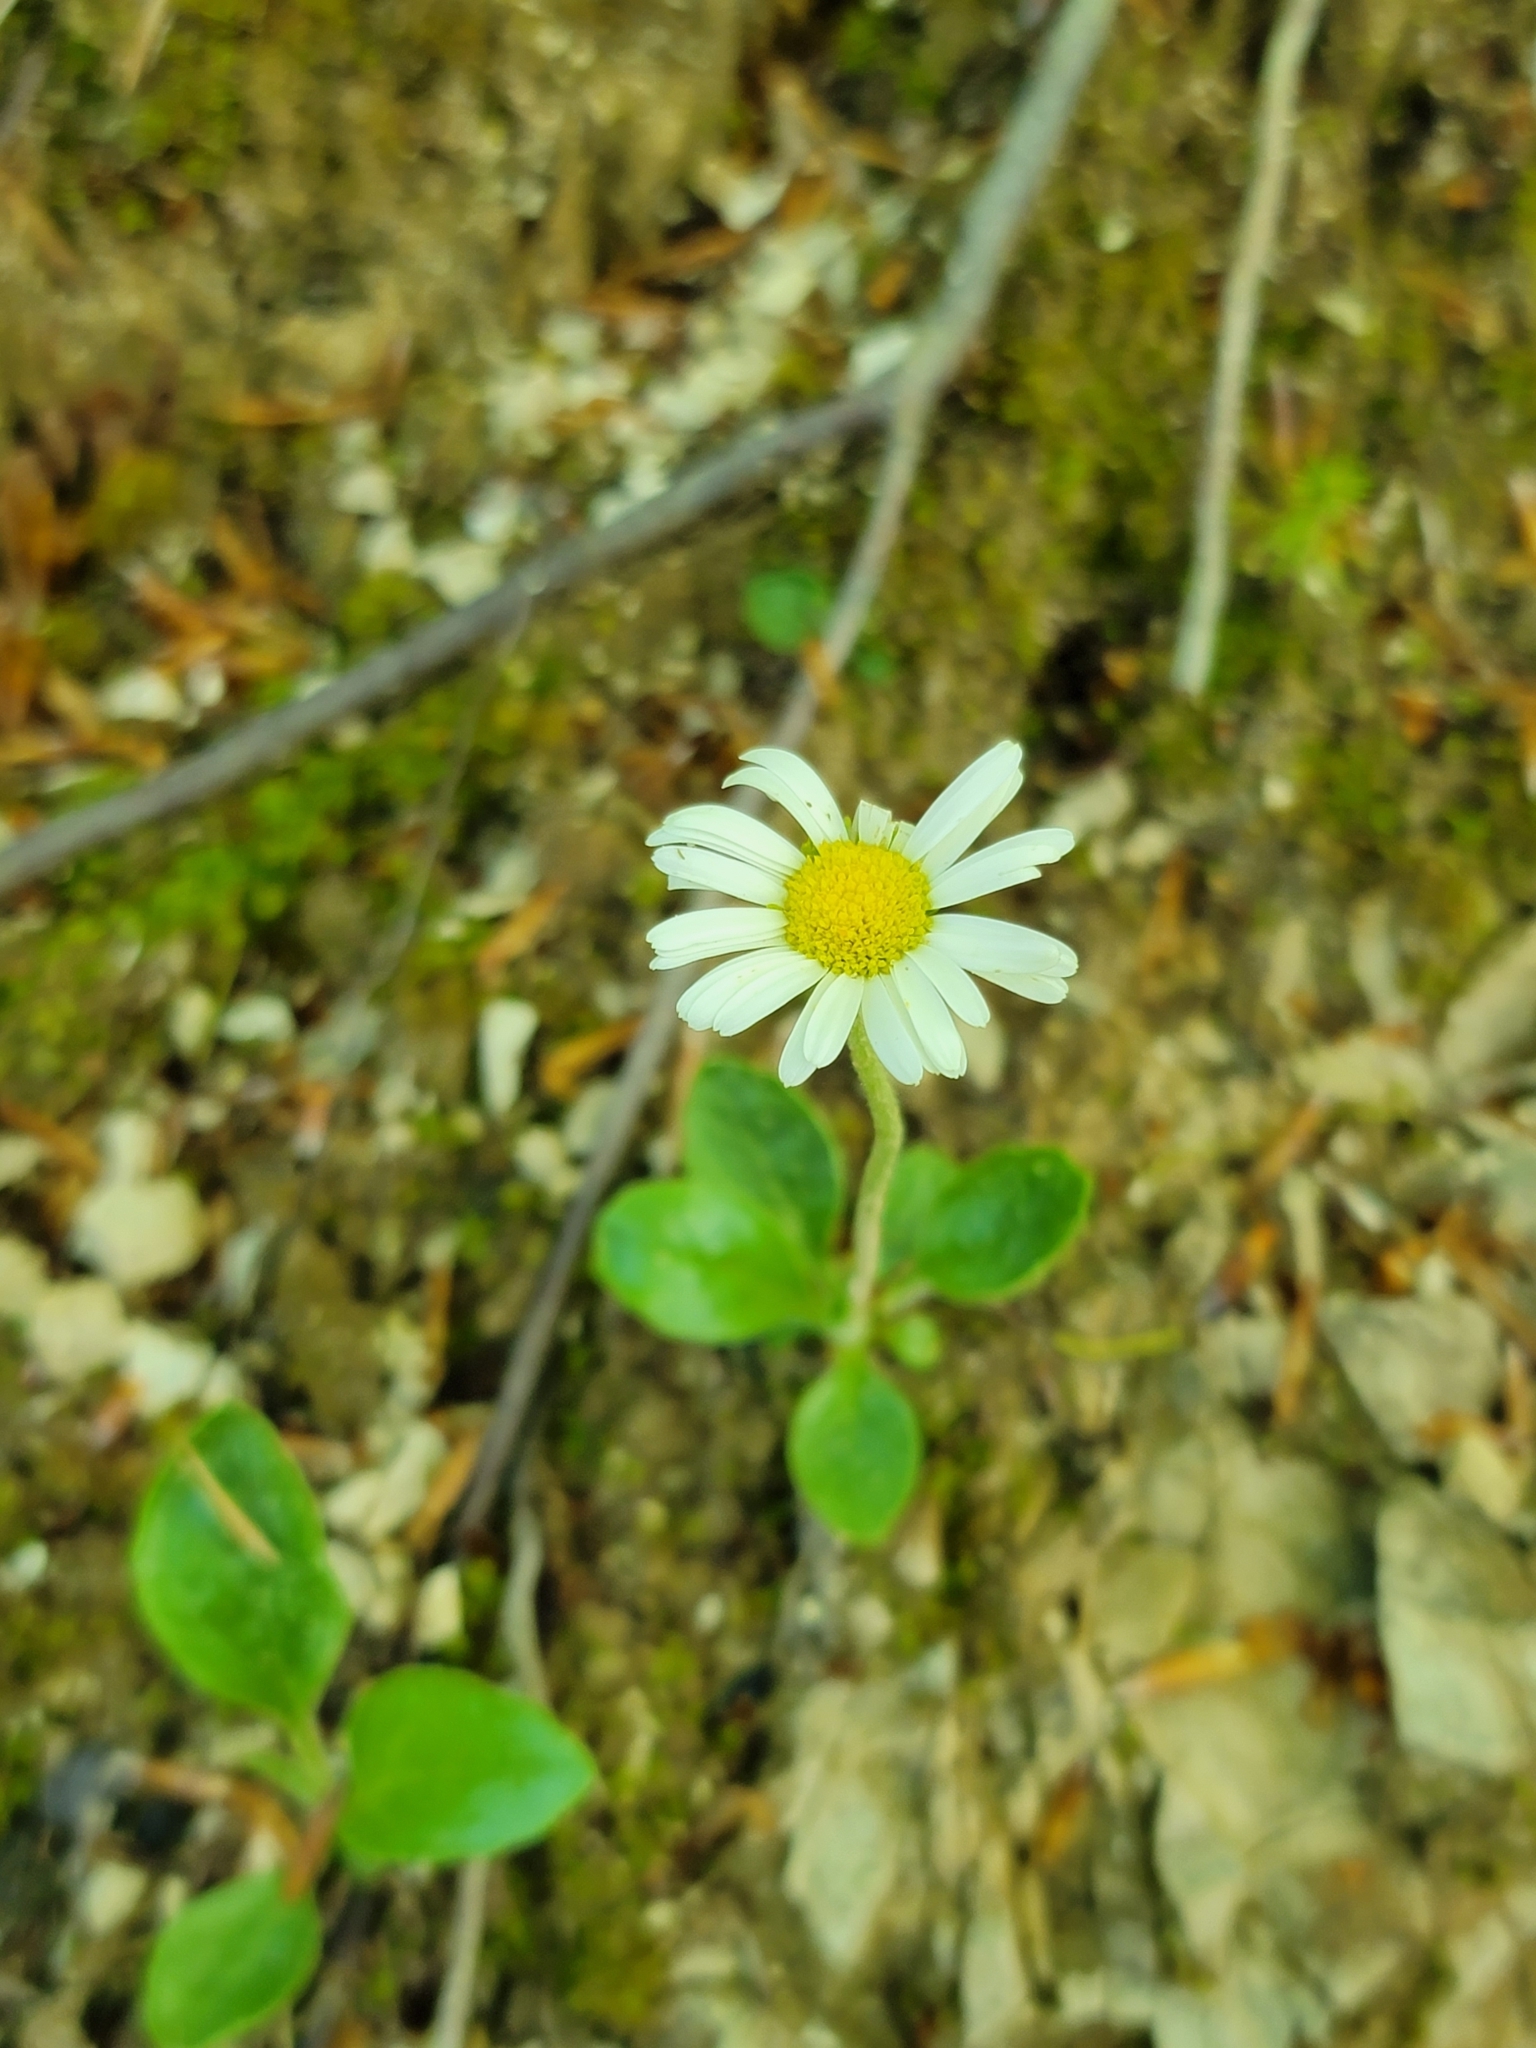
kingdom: Plantae
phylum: Tracheophyta
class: Magnoliopsida
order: Asterales
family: Asteraceae
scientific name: Asteraceae
